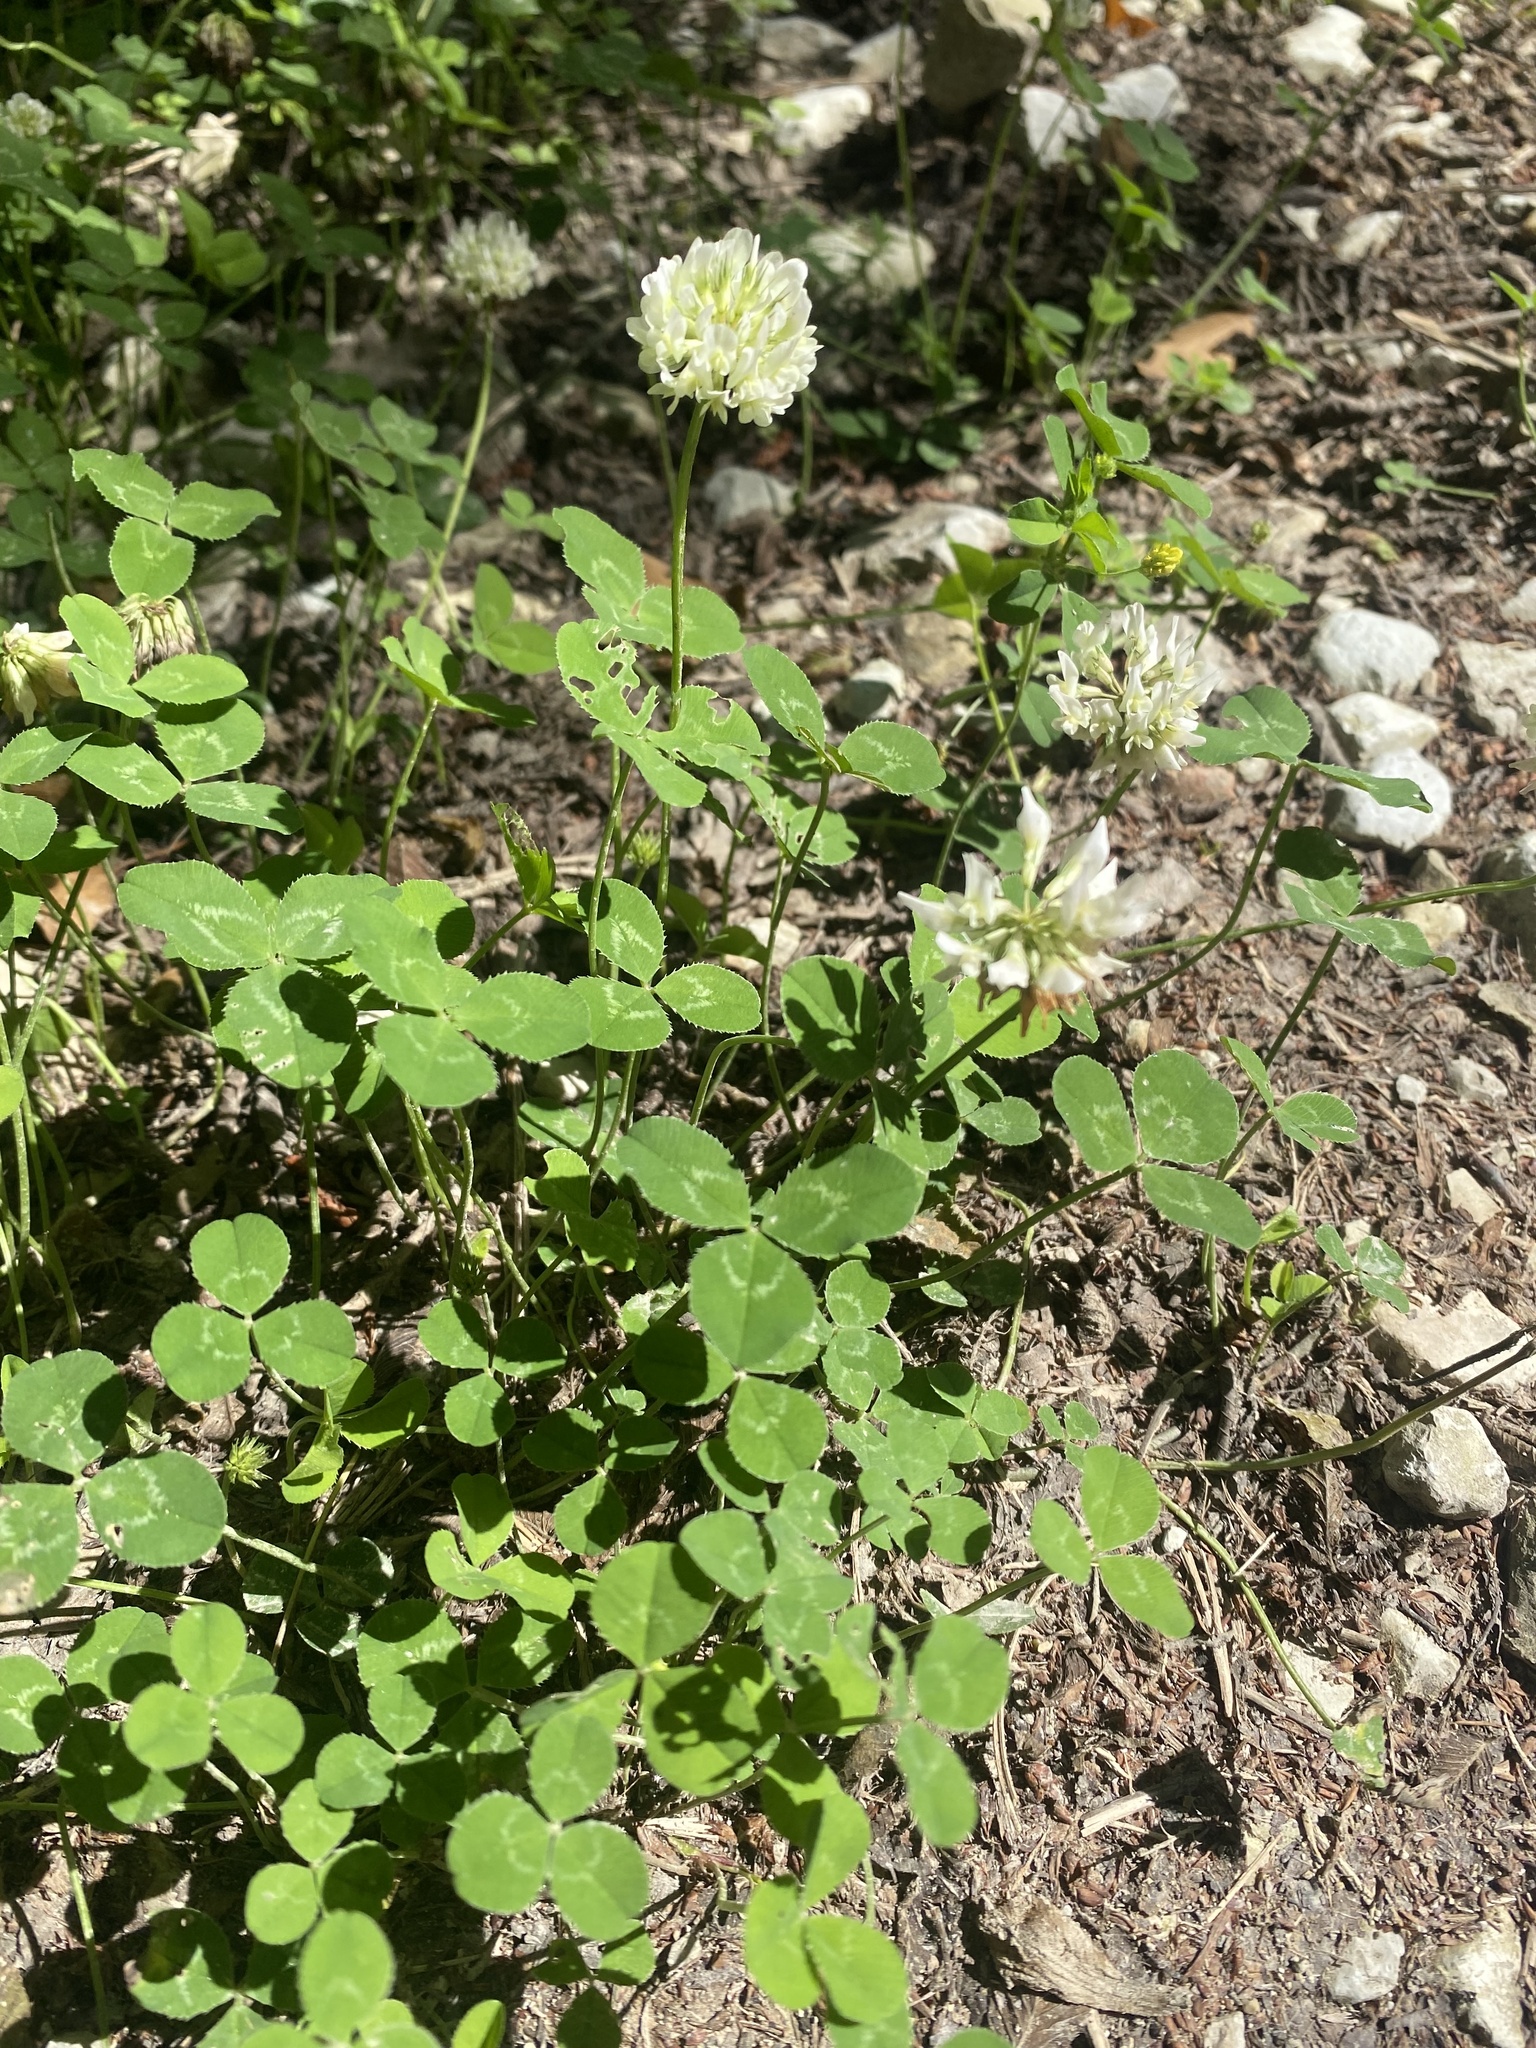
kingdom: Plantae
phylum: Tracheophyta
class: Magnoliopsida
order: Fabales
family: Fabaceae
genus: Trifolium
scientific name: Trifolium repens
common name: White clover
